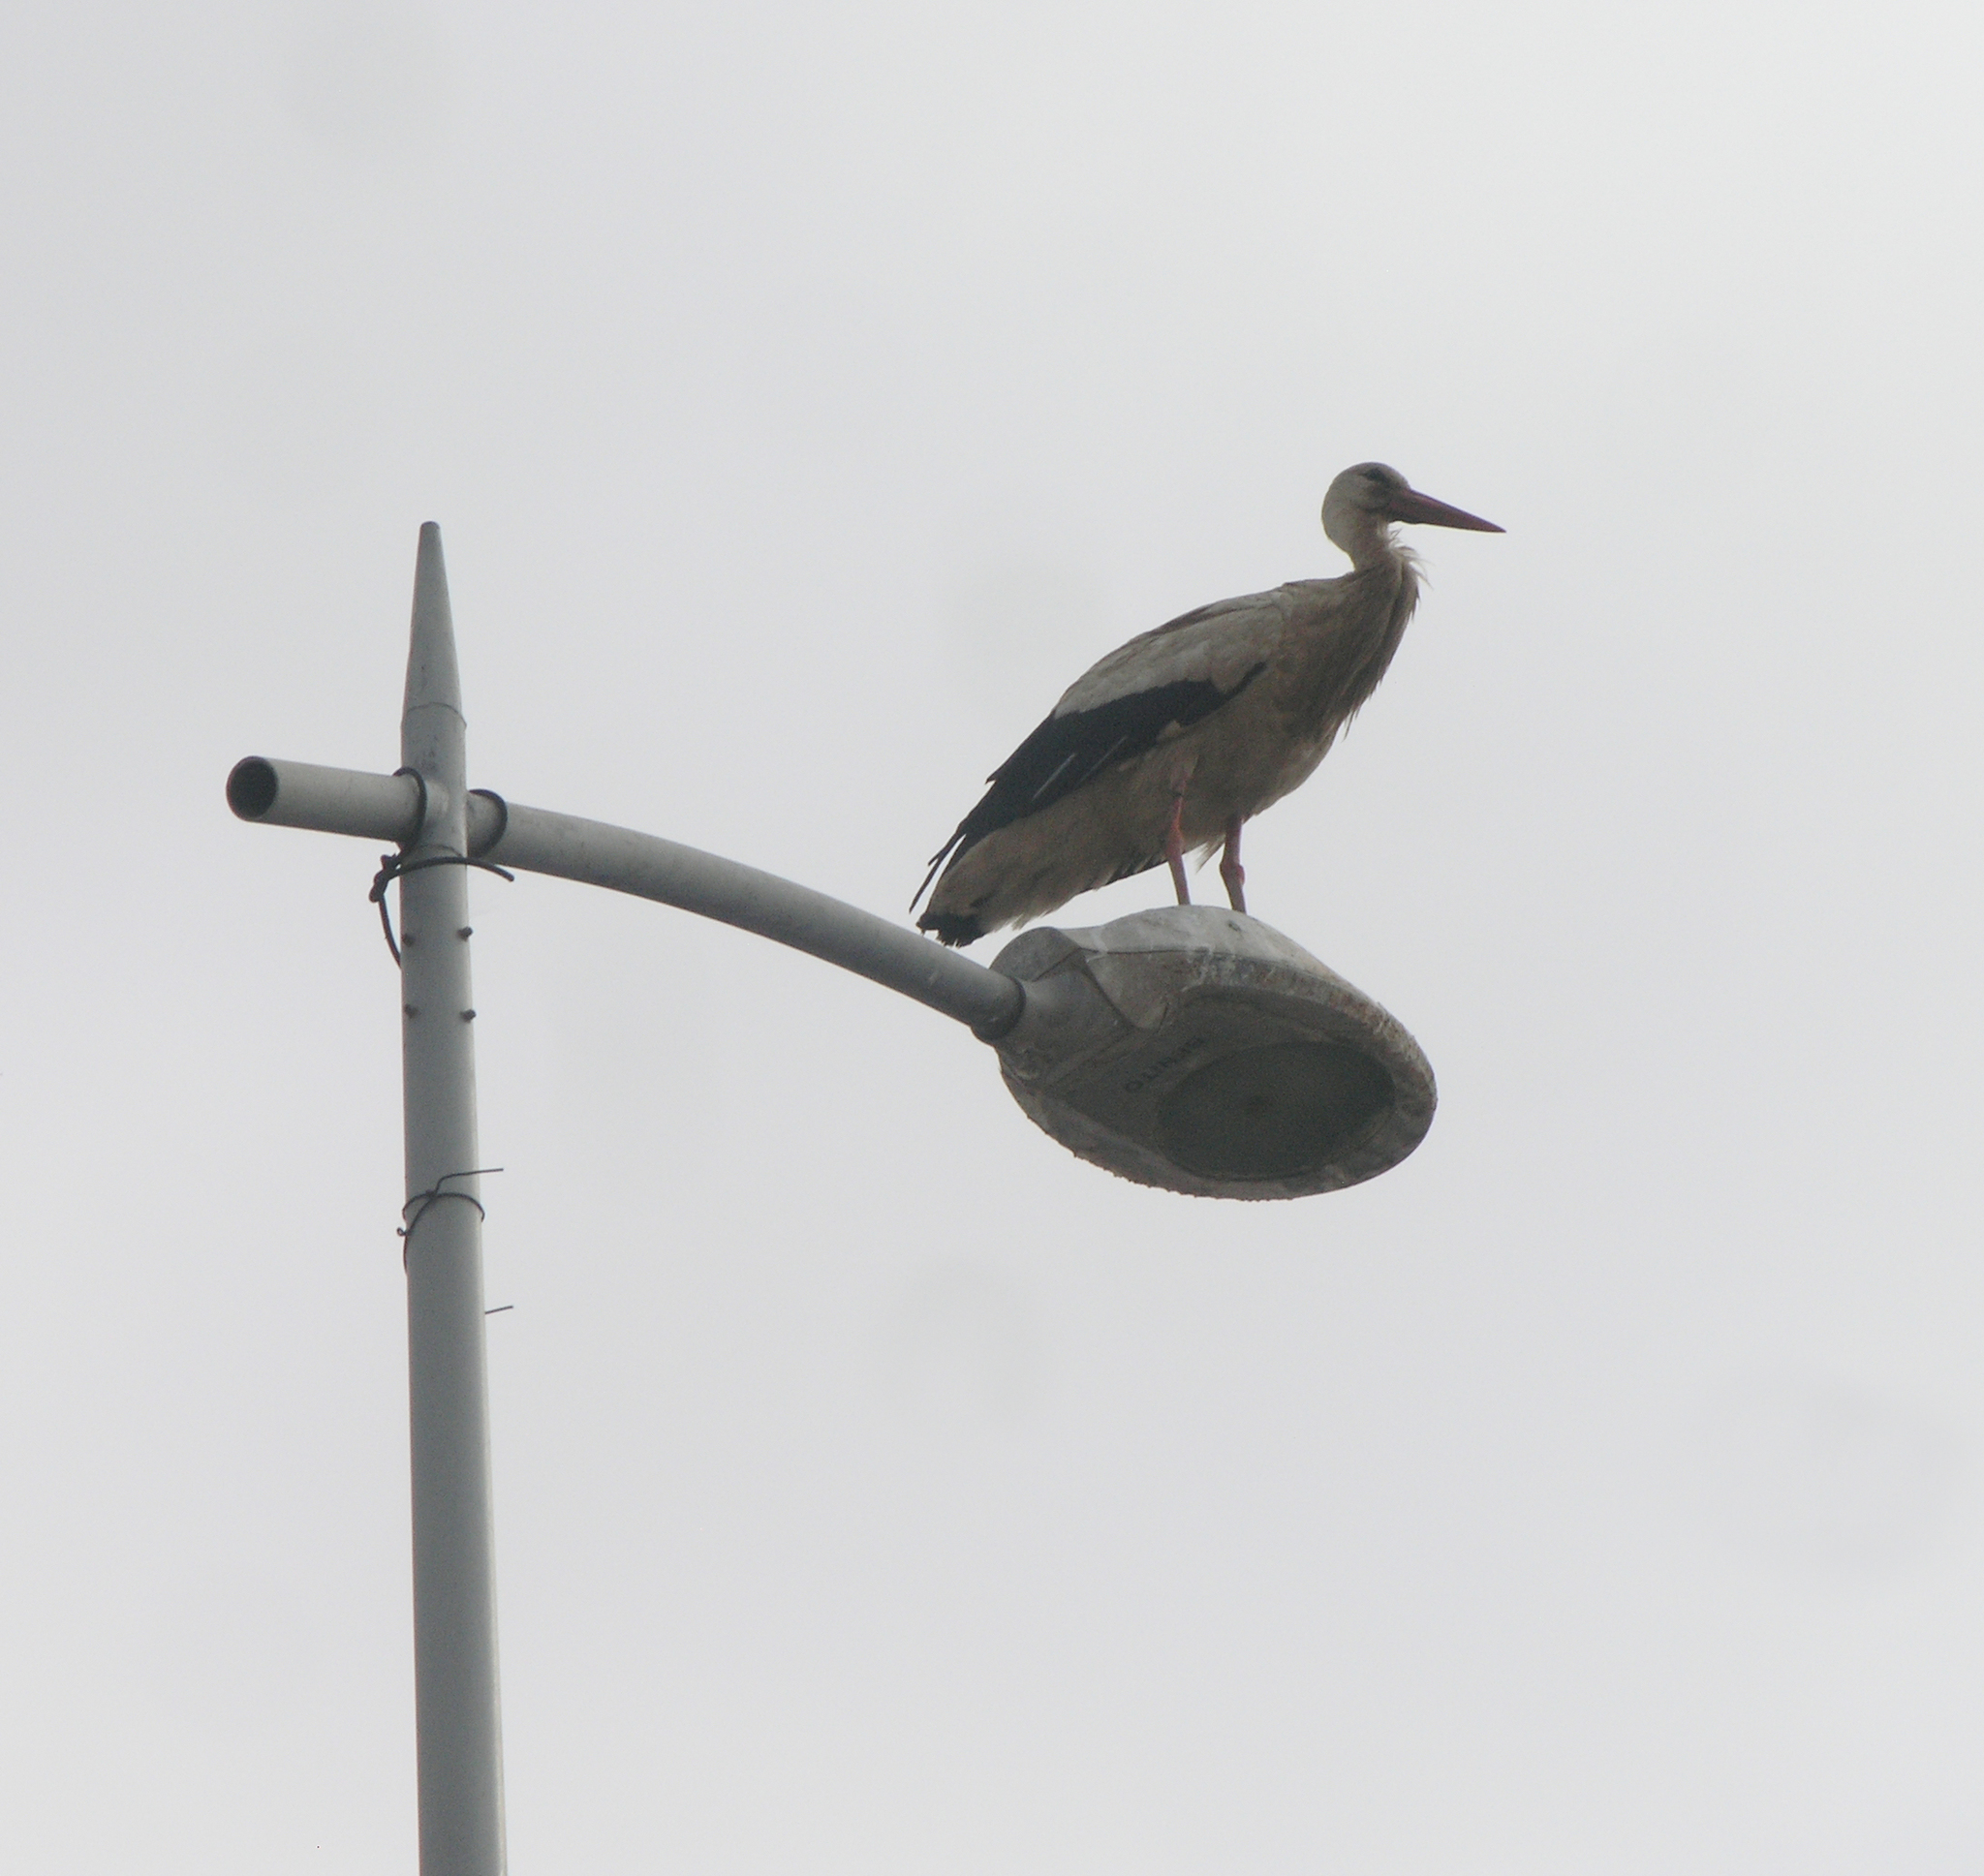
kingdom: Animalia
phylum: Chordata
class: Aves
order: Ciconiiformes
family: Ciconiidae
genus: Ciconia
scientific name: Ciconia ciconia
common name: White stork
